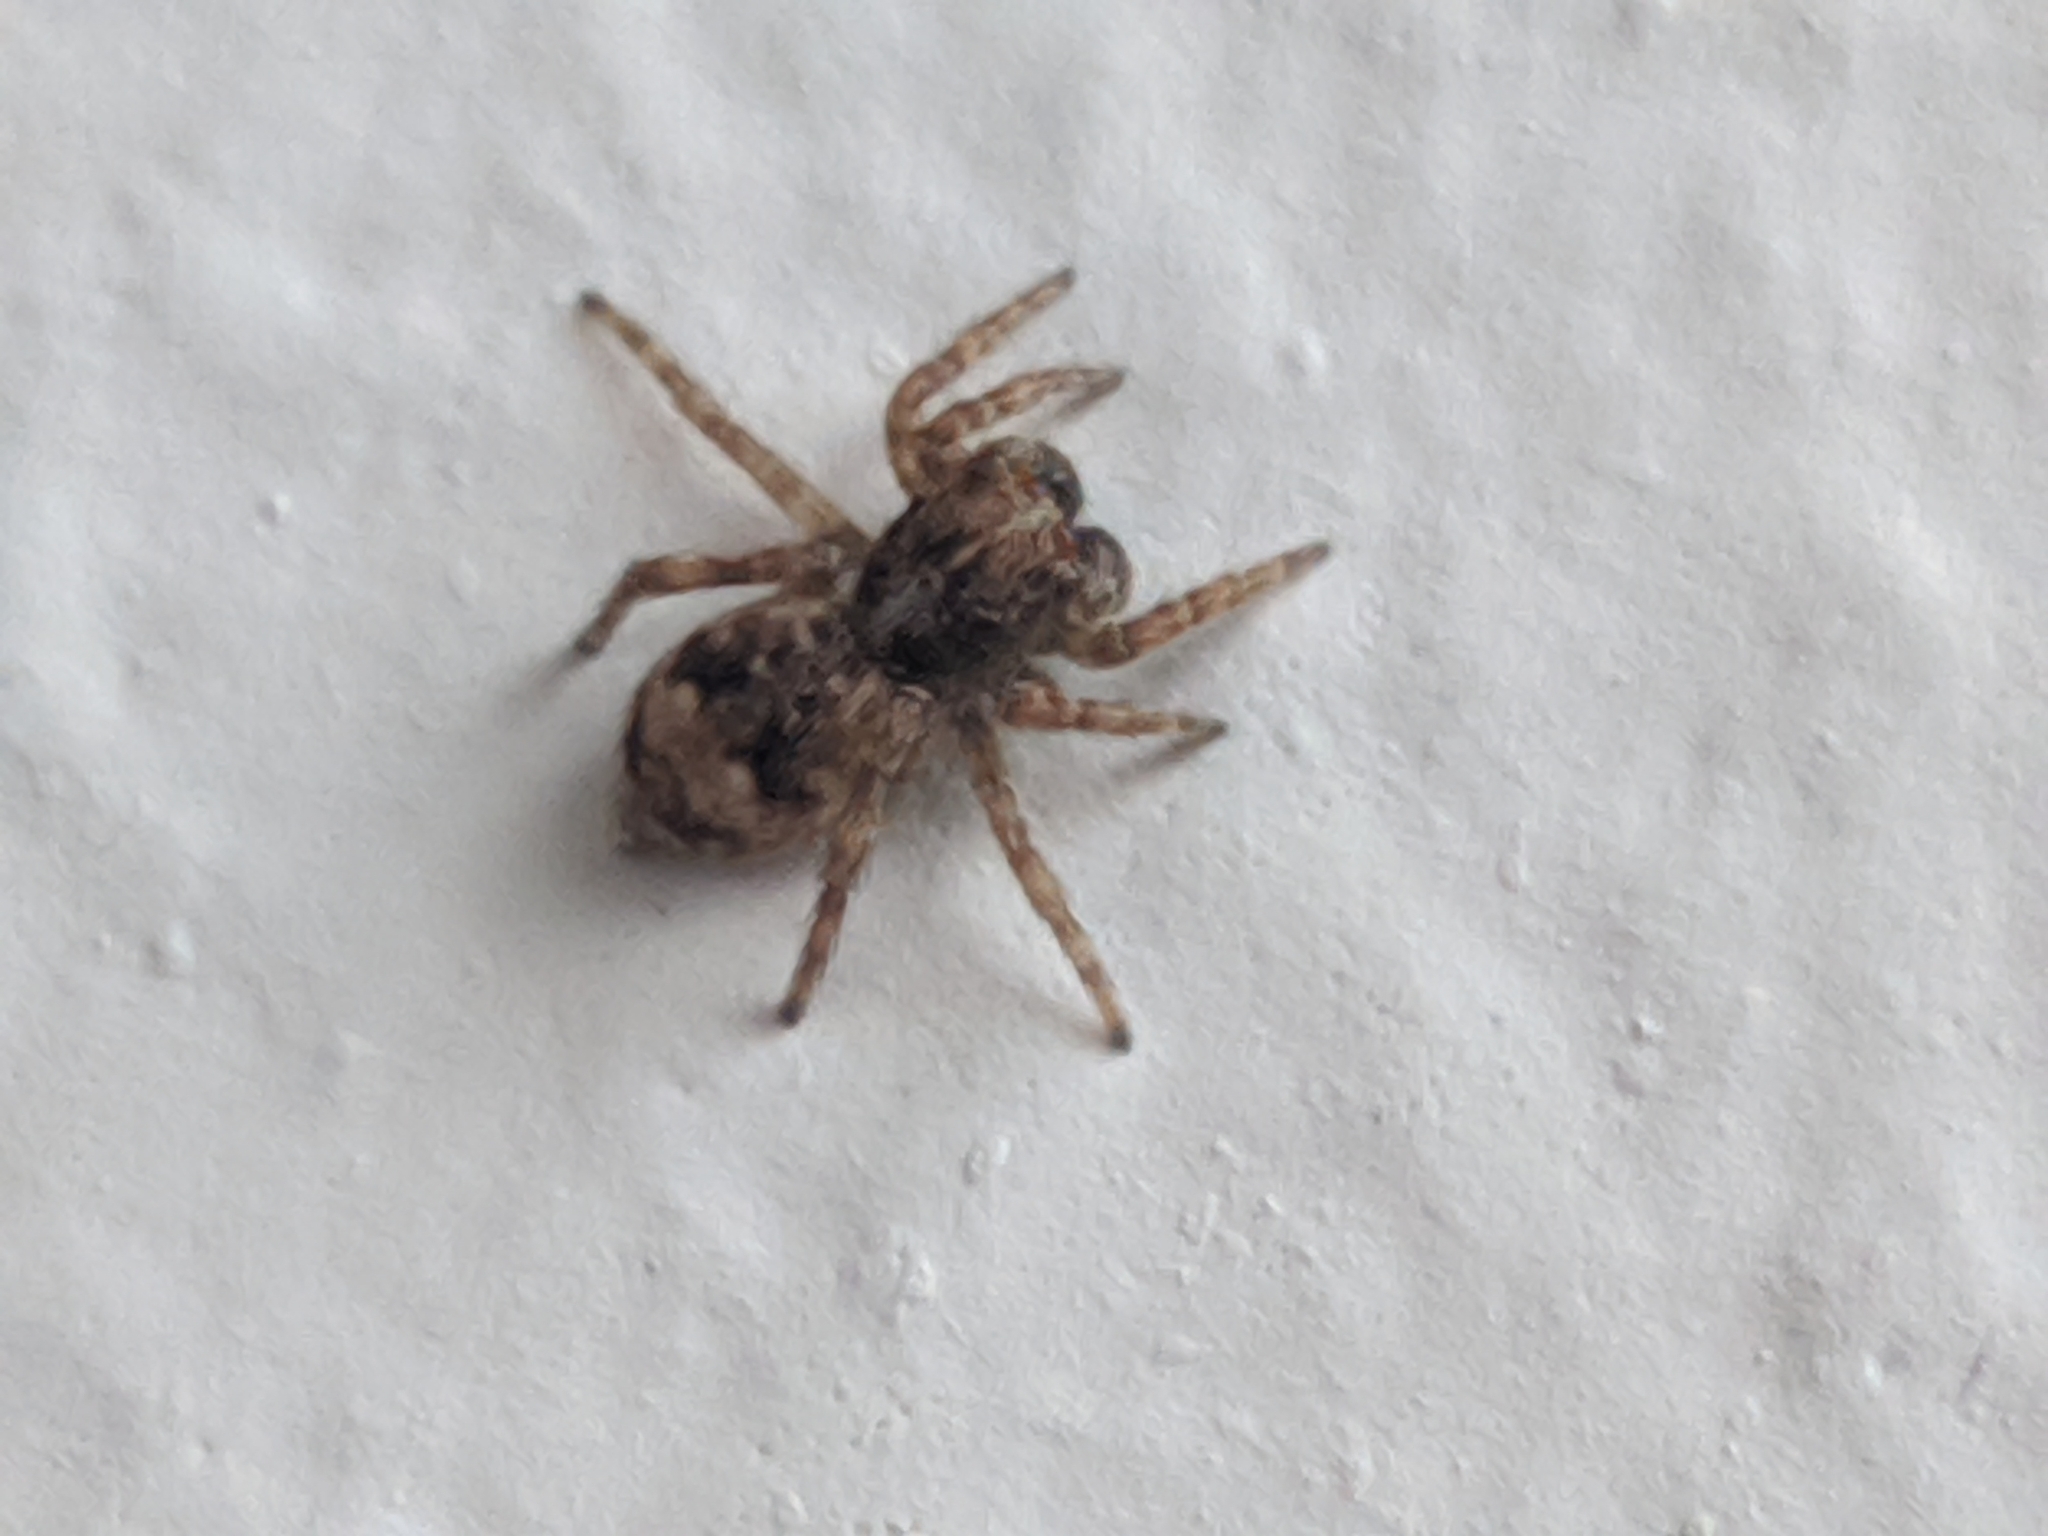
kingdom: Animalia
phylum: Arthropoda
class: Arachnida
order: Araneae
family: Salticidae
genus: Attulus
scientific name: Attulus fasciger
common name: Asiatic wall jumping spider
